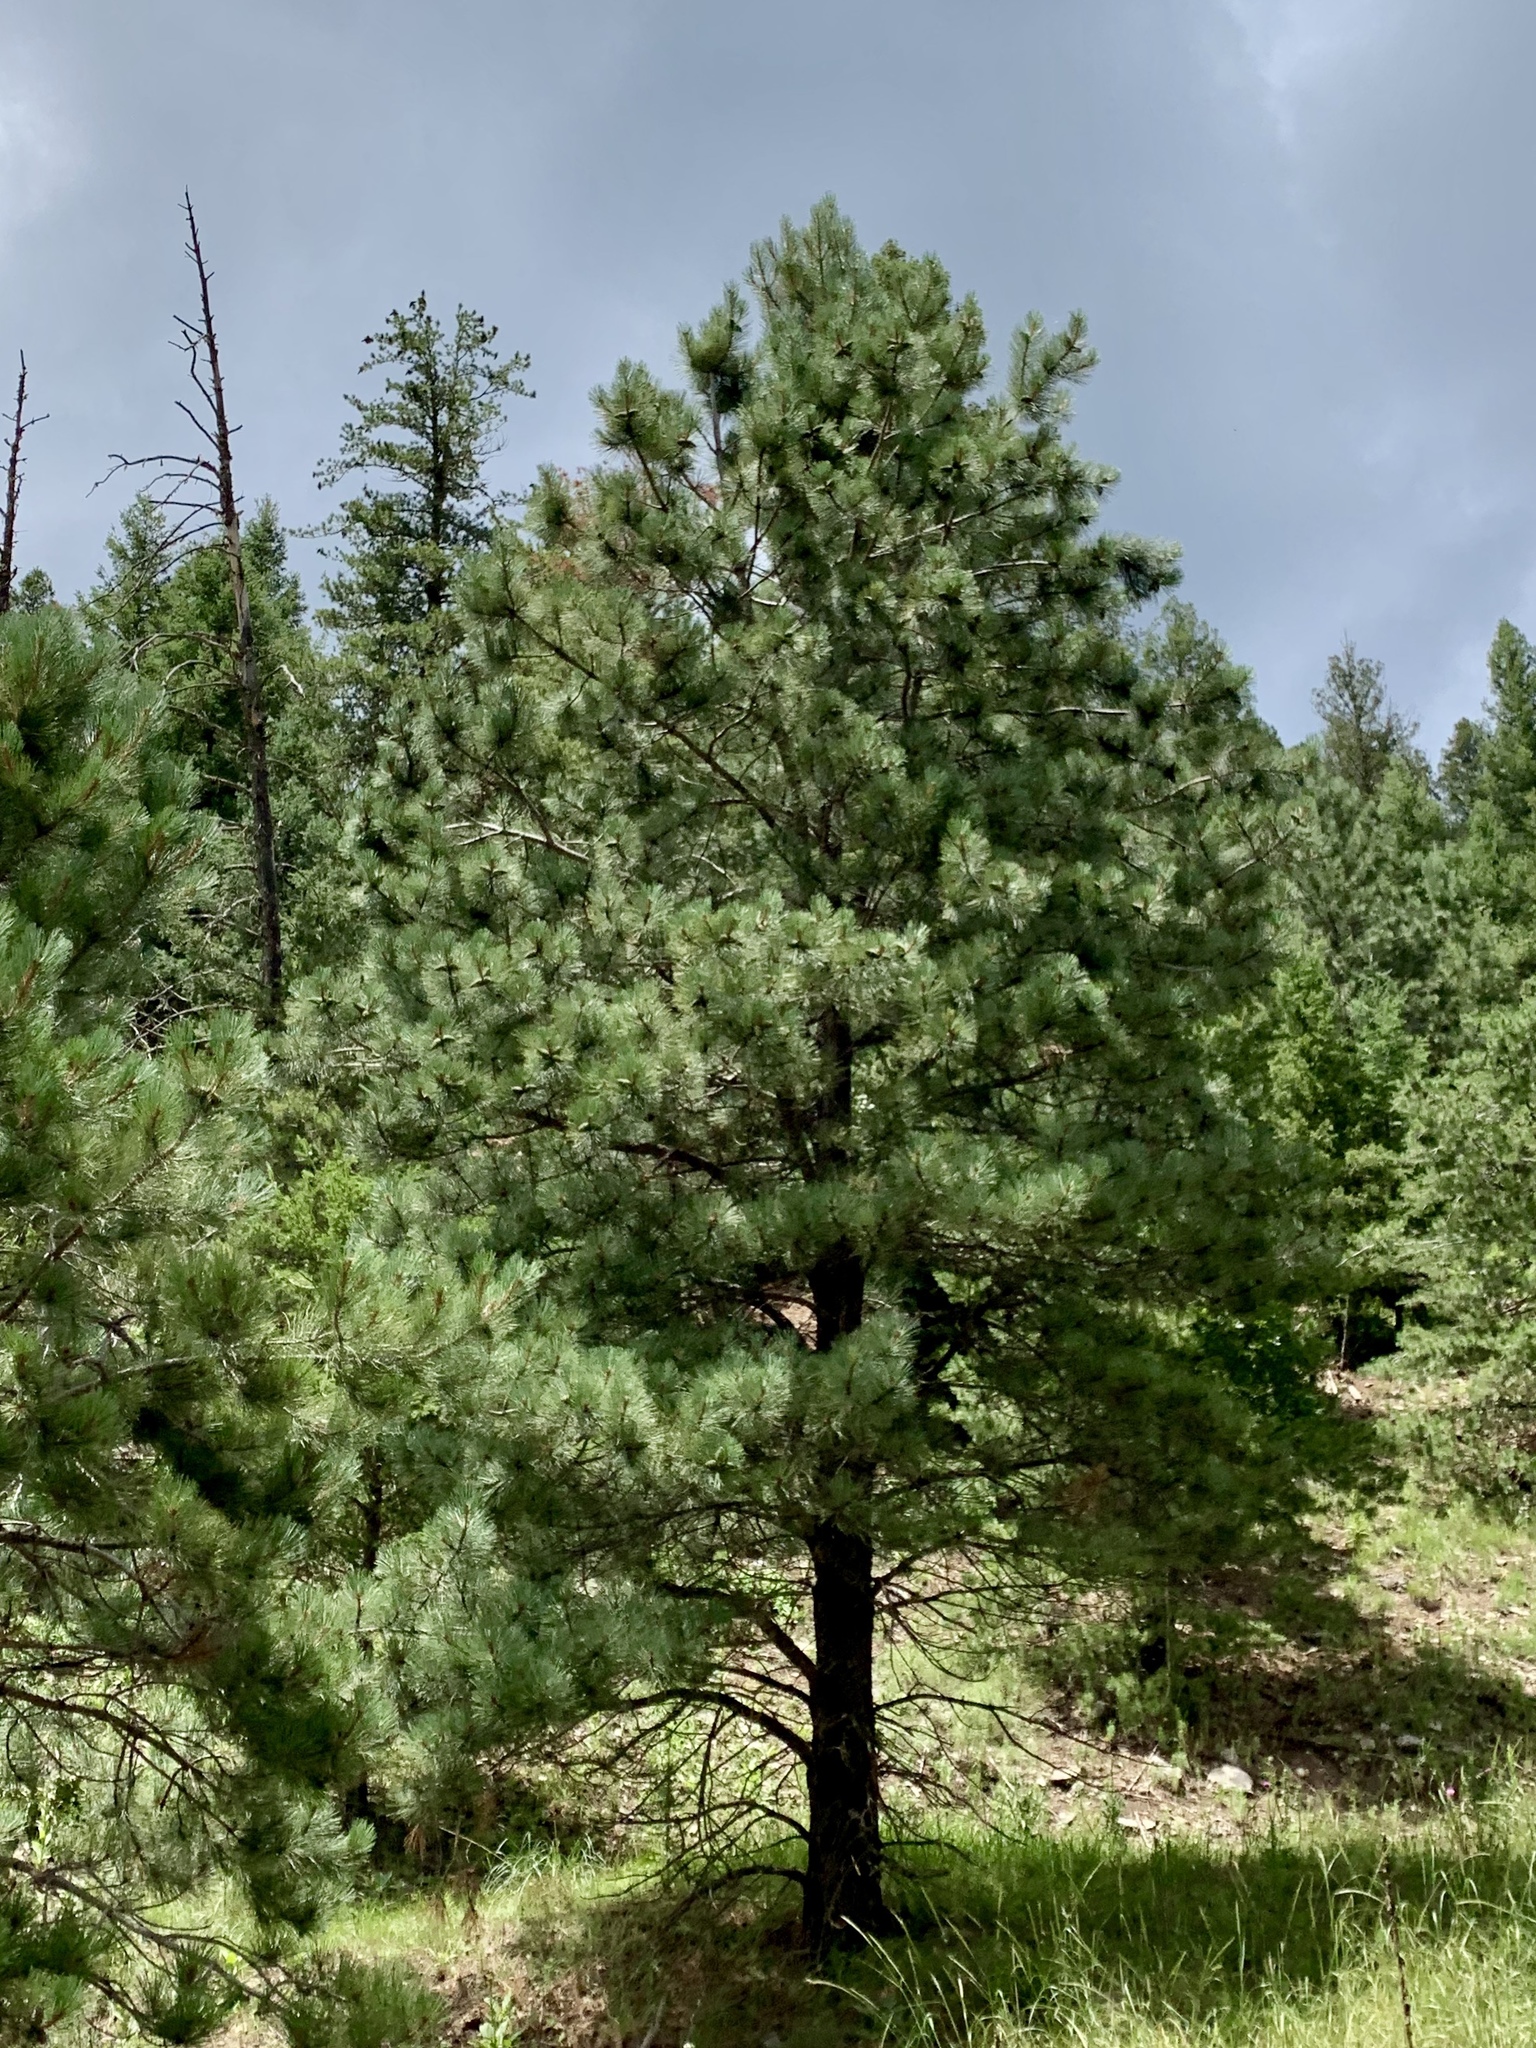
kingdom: Plantae
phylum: Tracheophyta
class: Pinopsida
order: Pinales
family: Pinaceae
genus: Pinus
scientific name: Pinus ponderosa
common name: Western yellow-pine
